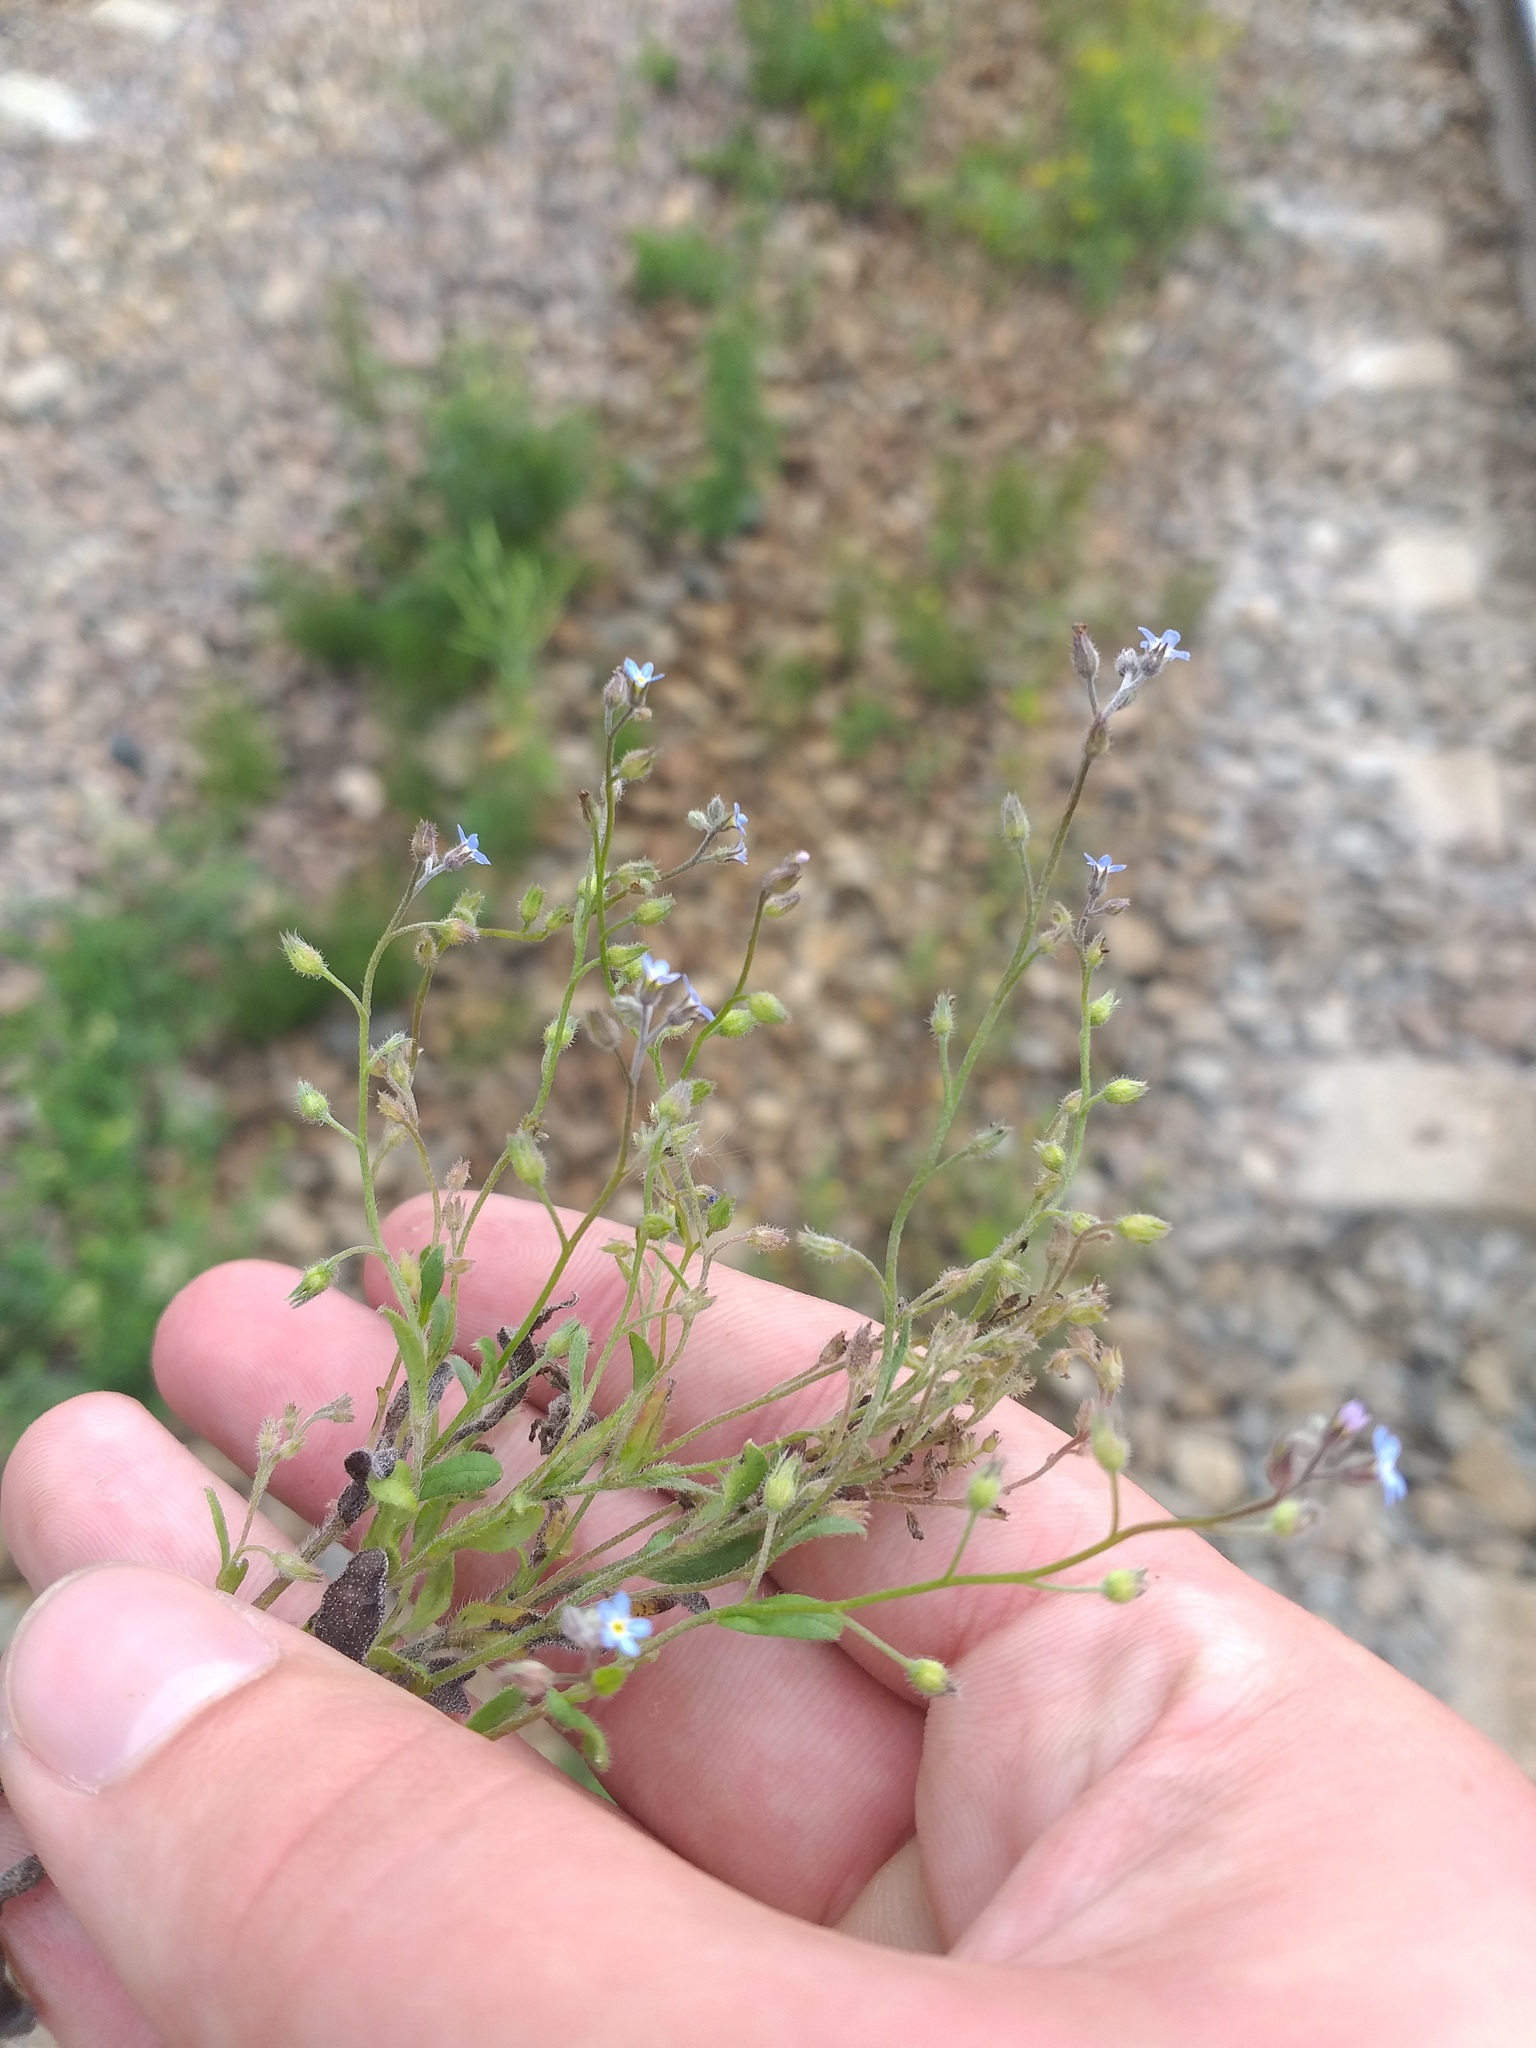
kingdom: Plantae
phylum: Tracheophyta
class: Magnoliopsida
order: Boraginales
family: Boraginaceae
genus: Myosotis
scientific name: Myosotis arvensis
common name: Field forget-me-not
